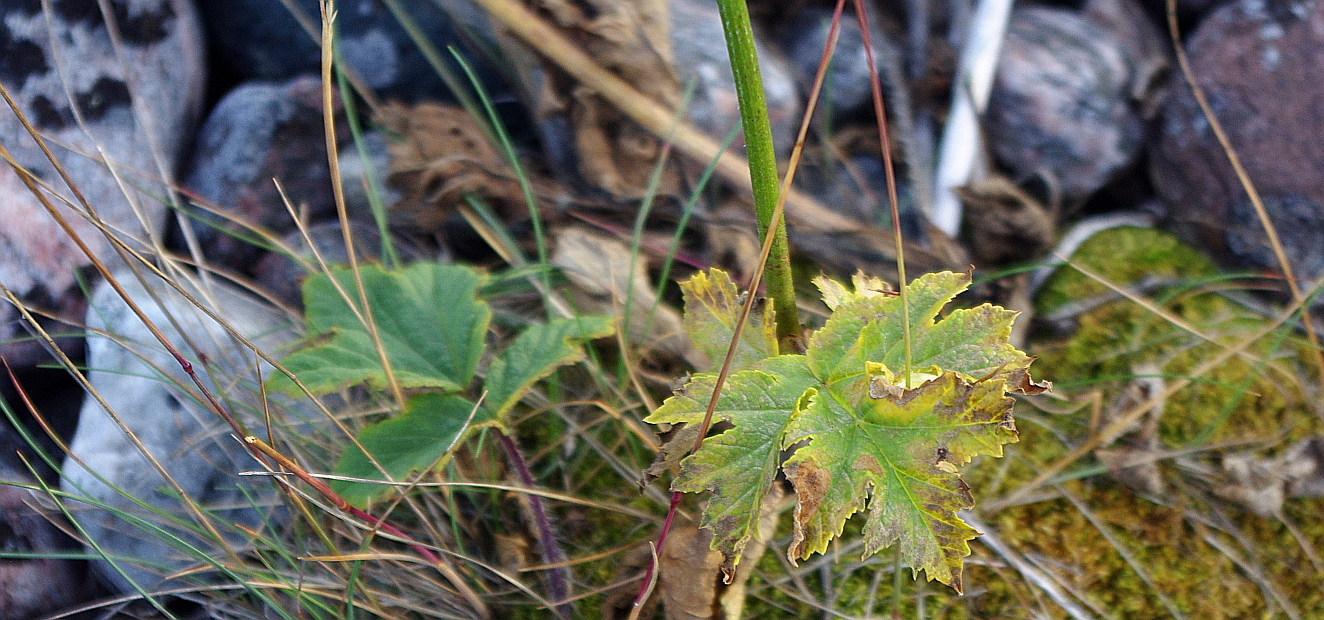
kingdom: Plantae
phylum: Tracheophyta
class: Magnoliopsida
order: Apiales
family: Apiaceae
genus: Heracleum
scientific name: Heracleum sphondylium
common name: Hogweed
